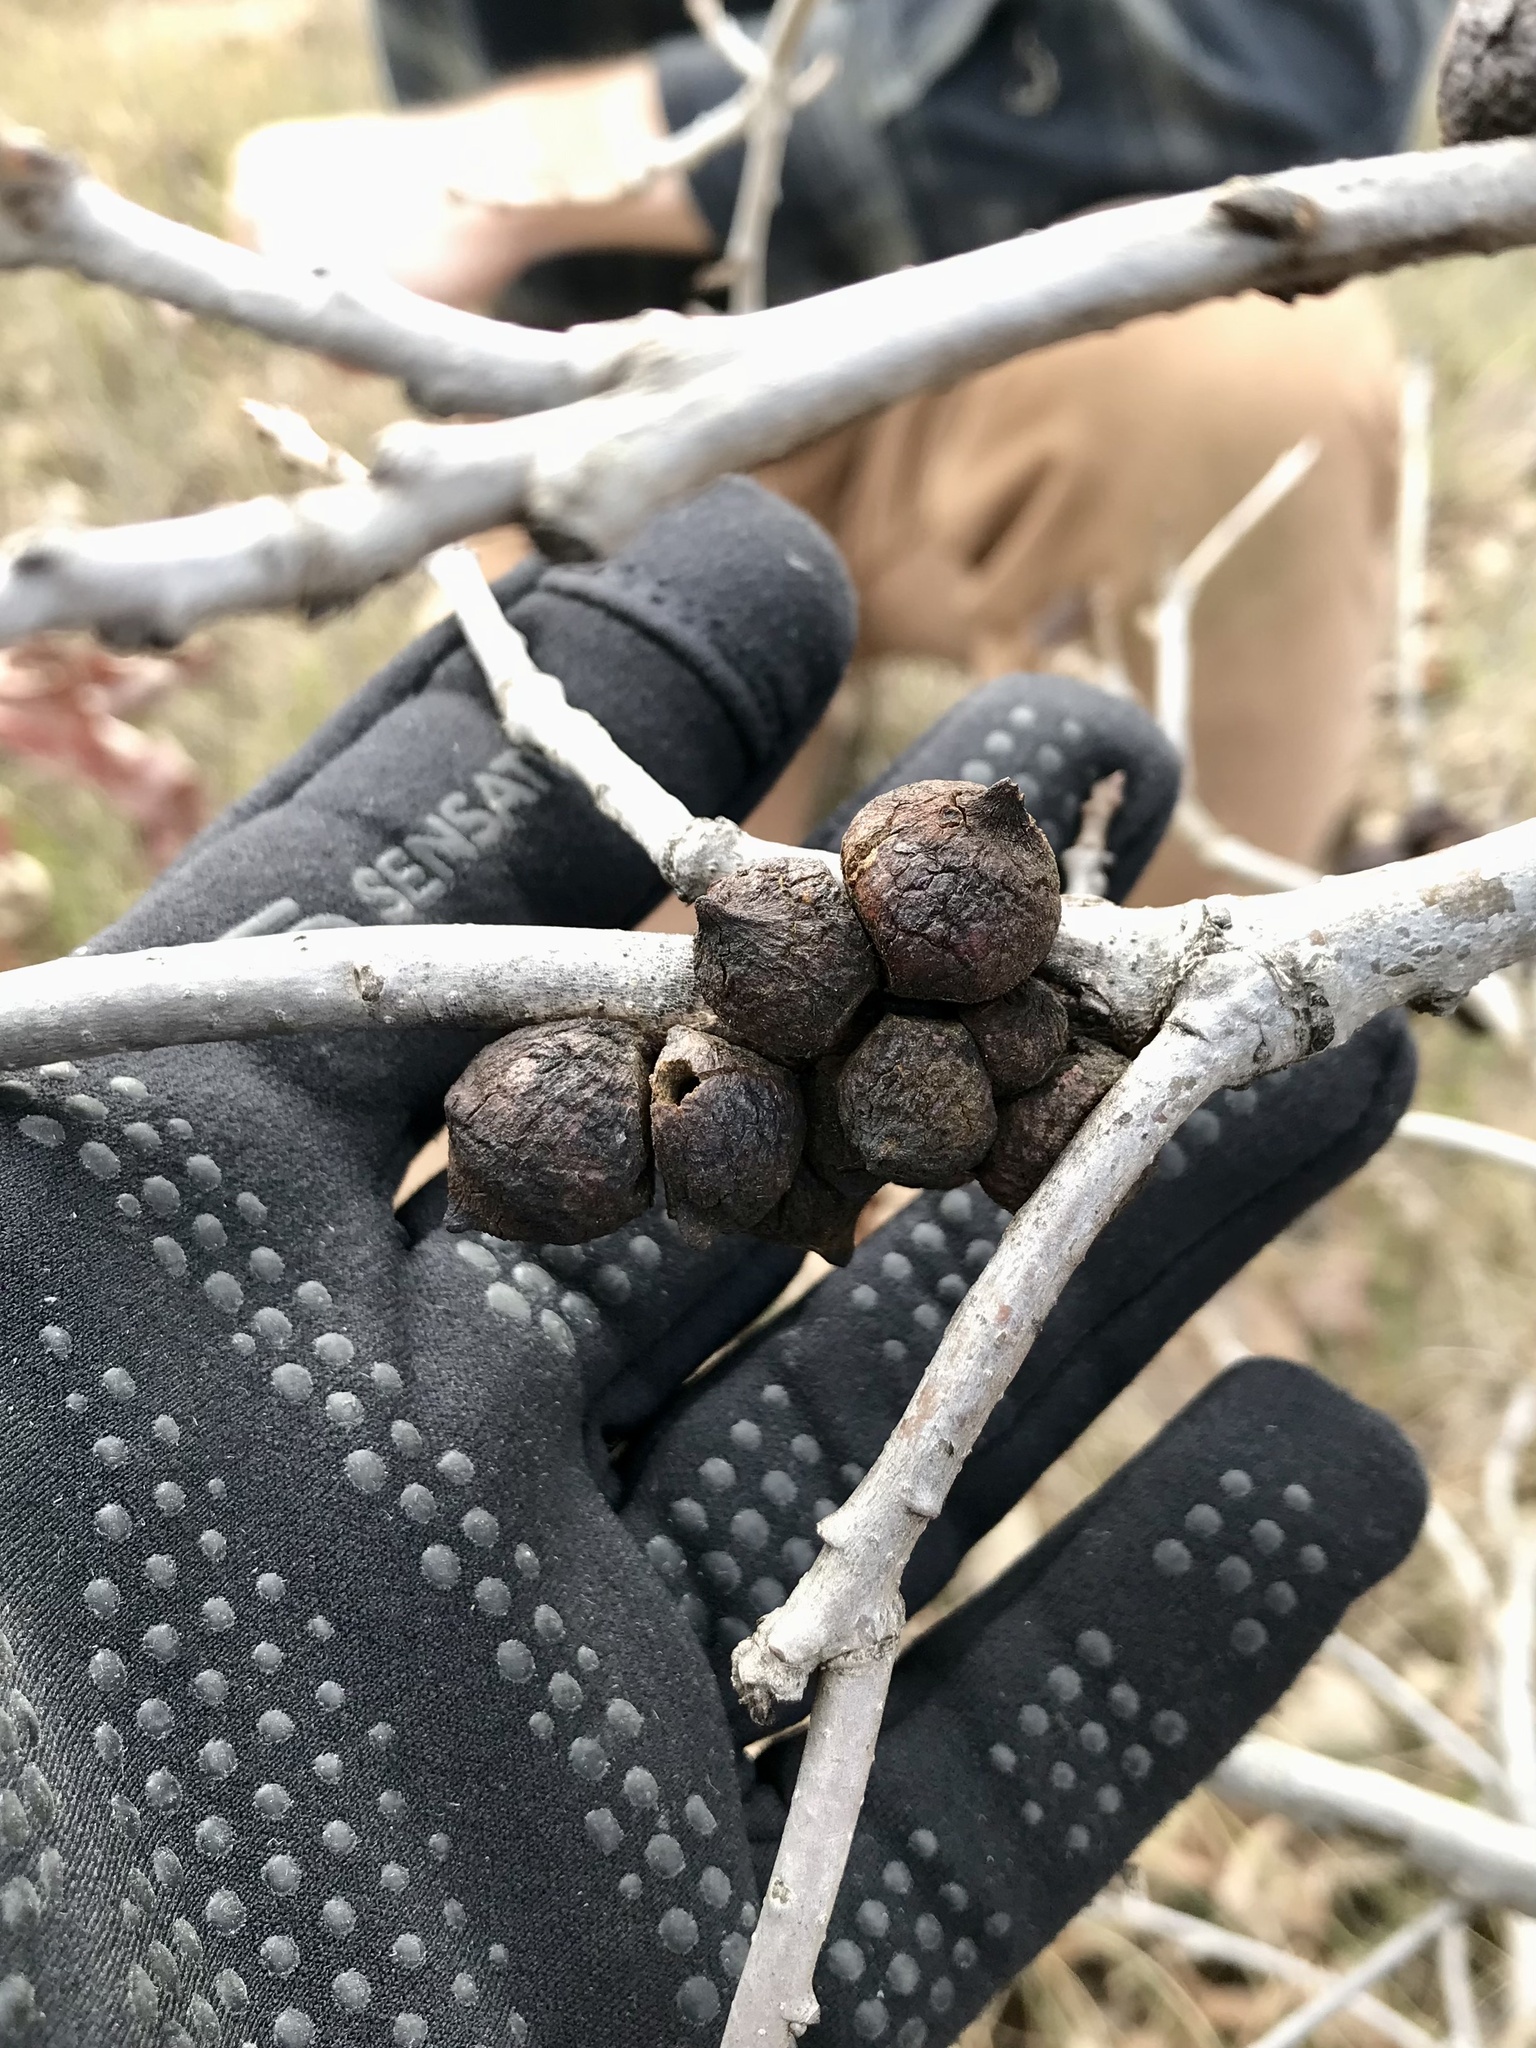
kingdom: Animalia
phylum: Arthropoda
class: Insecta
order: Hymenoptera
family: Cynipidae
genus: Disholcaspis
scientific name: Disholcaspis
